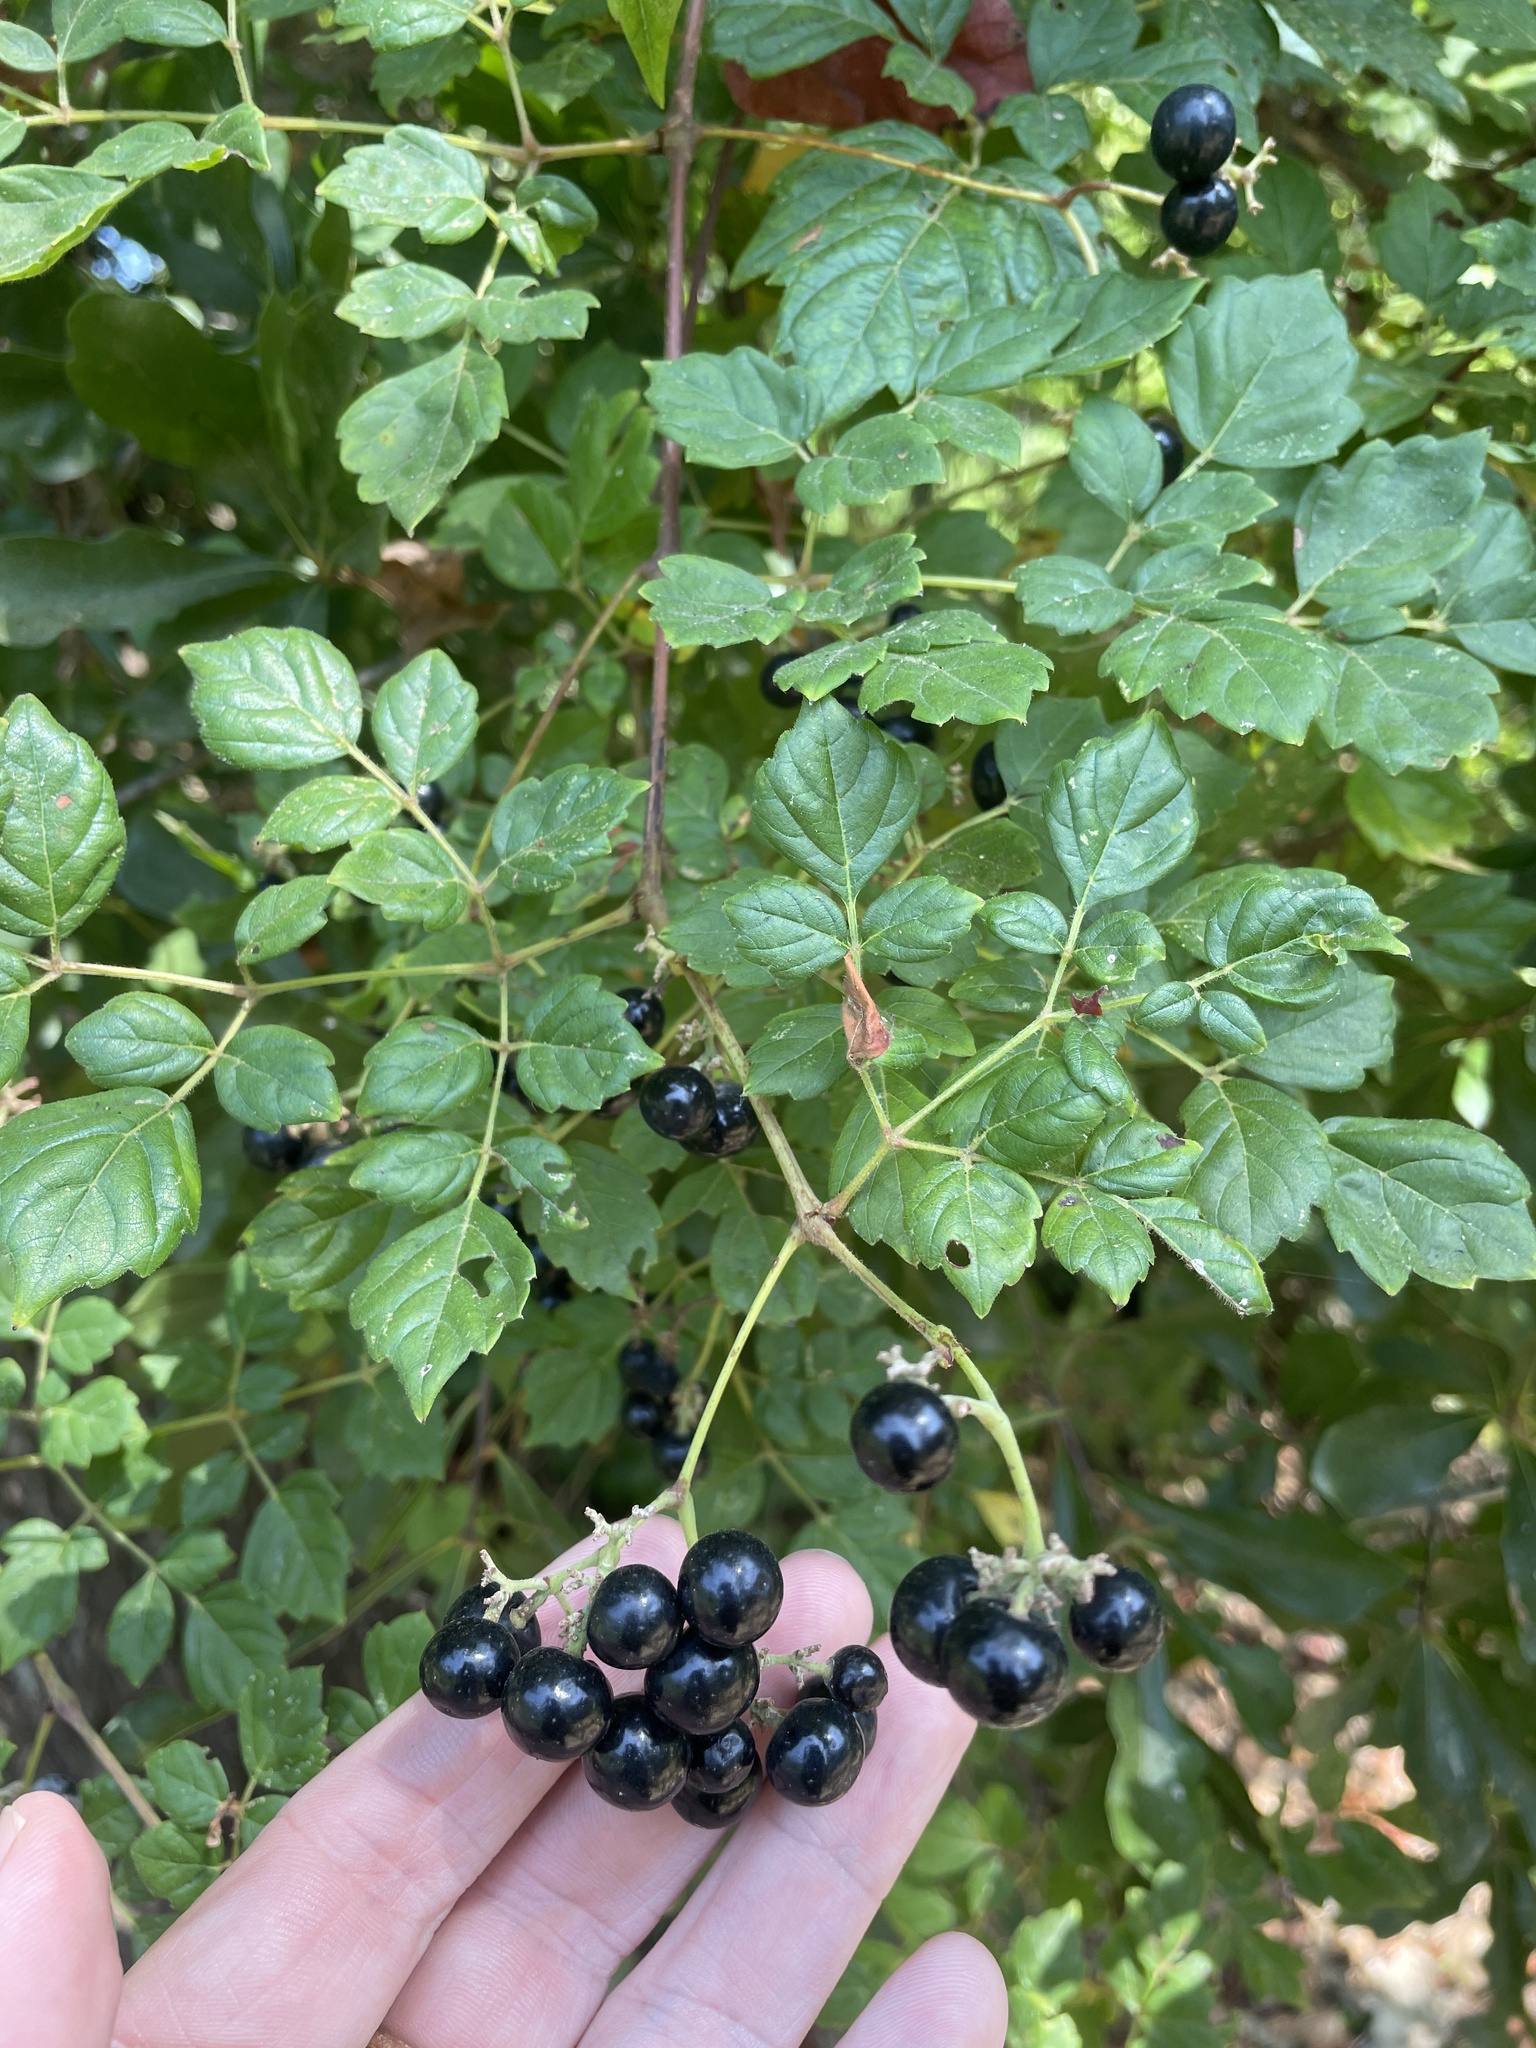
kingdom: Plantae
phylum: Tracheophyta
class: Magnoliopsida
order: Vitales
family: Vitaceae
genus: Nekemias
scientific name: Nekemias arborea
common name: Peppervine
